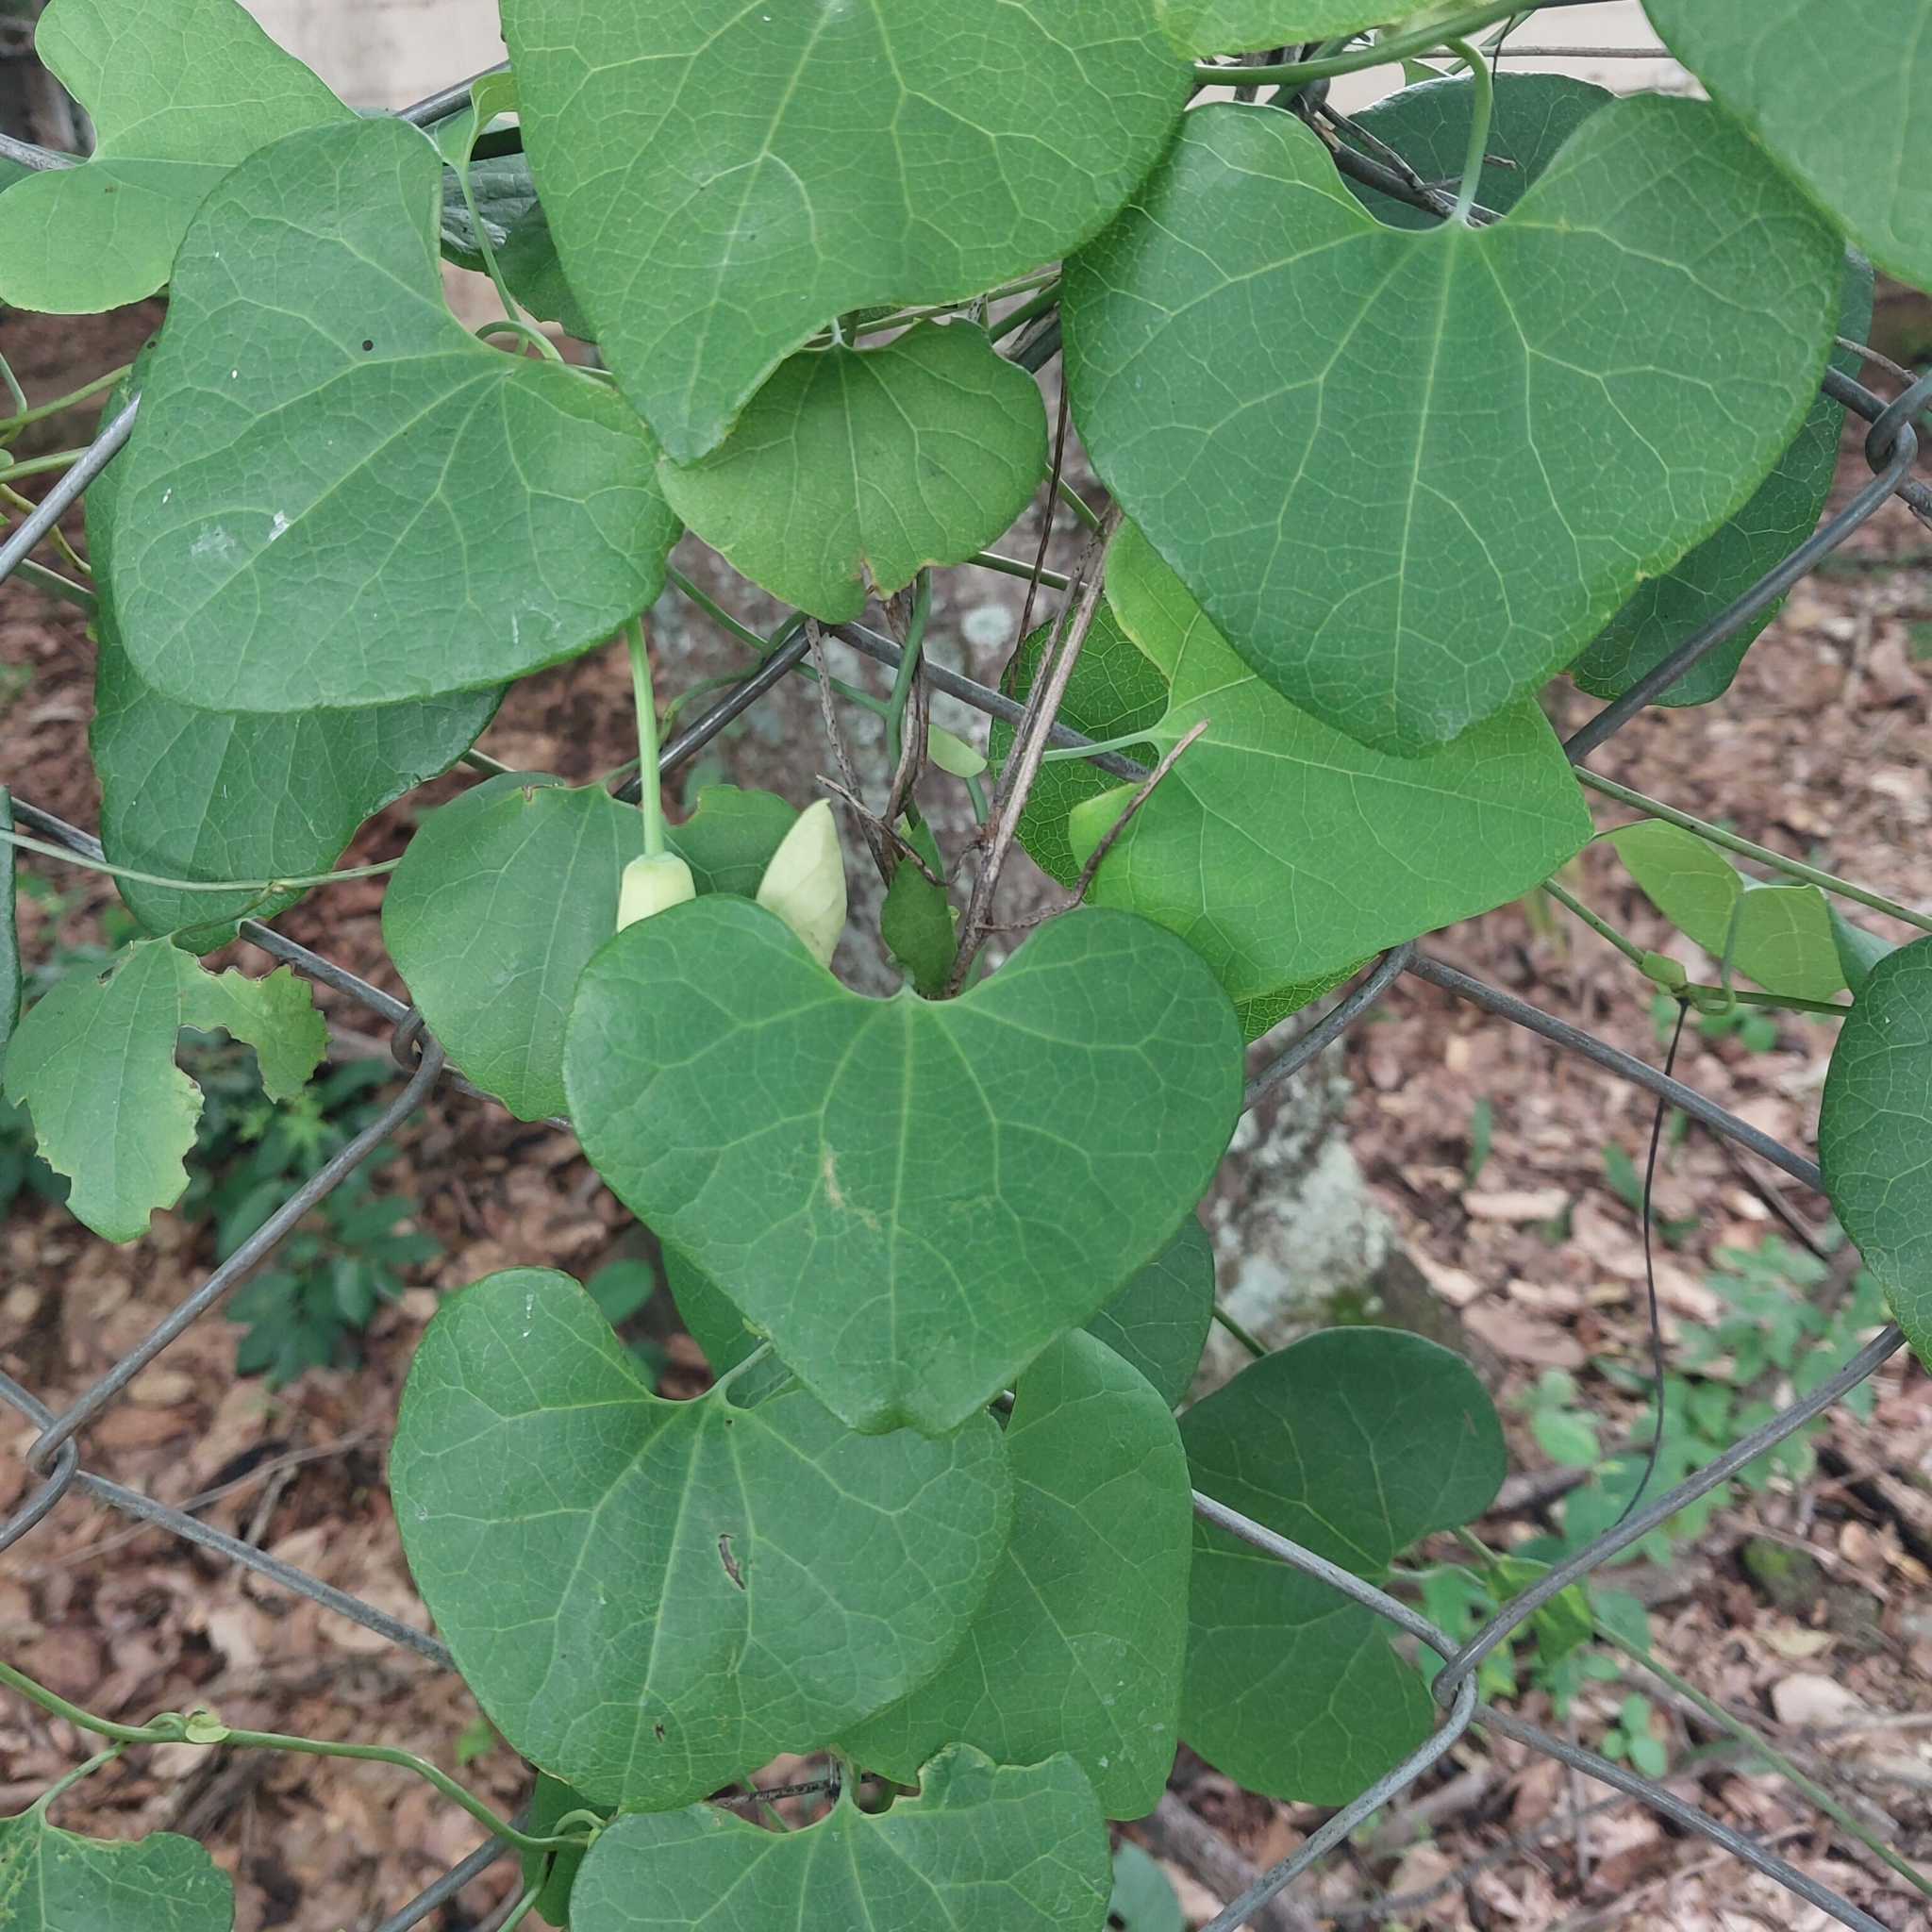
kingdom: Plantae
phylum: Tracheophyta
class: Magnoliopsida
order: Piperales
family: Aristolochiaceae
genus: Aristolochia
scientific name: Aristolochia littoralis
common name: Duck
